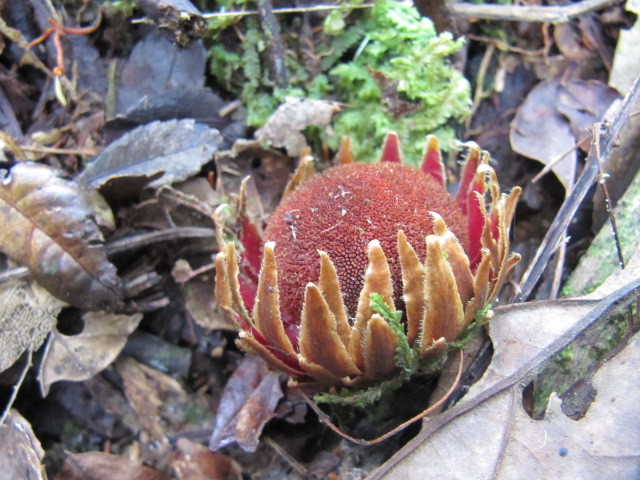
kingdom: Plantae
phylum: Tracheophyta
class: Magnoliopsida
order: Santalales
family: Balanophoraceae
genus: Langsdorffia
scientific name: Langsdorffia hypogaea
